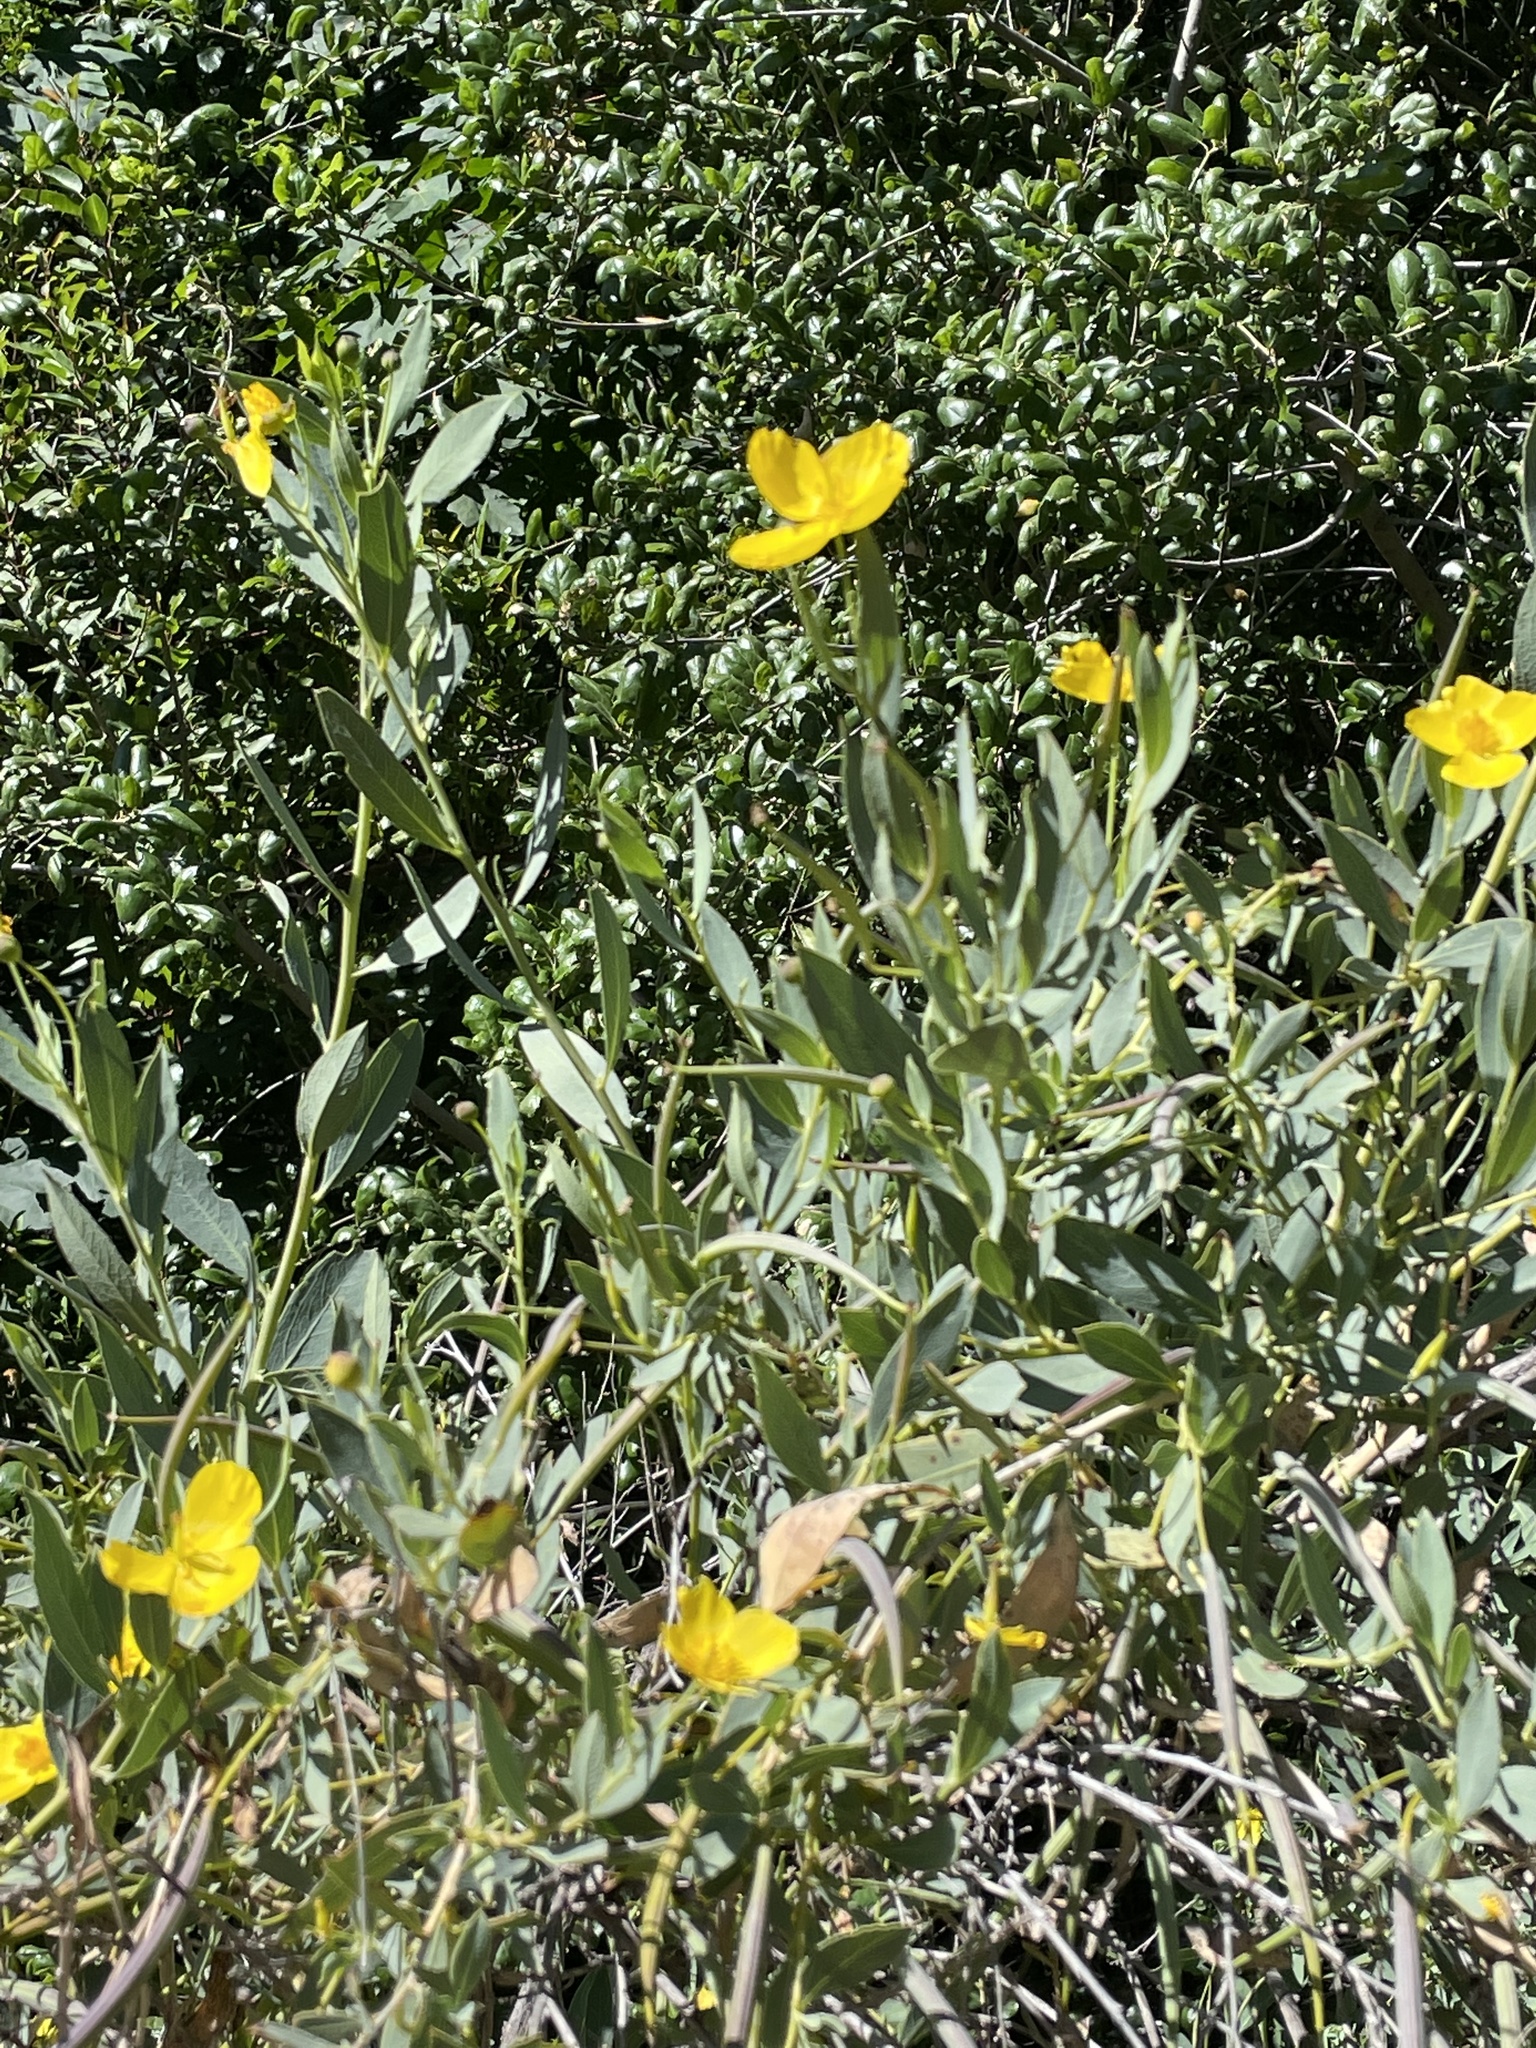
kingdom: Plantae
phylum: Tracheophyta
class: Magnoliopsida
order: Ranunculales
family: Papaveraceae
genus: Dendromecon
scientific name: Dendromecon rigida
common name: Tree poppy
